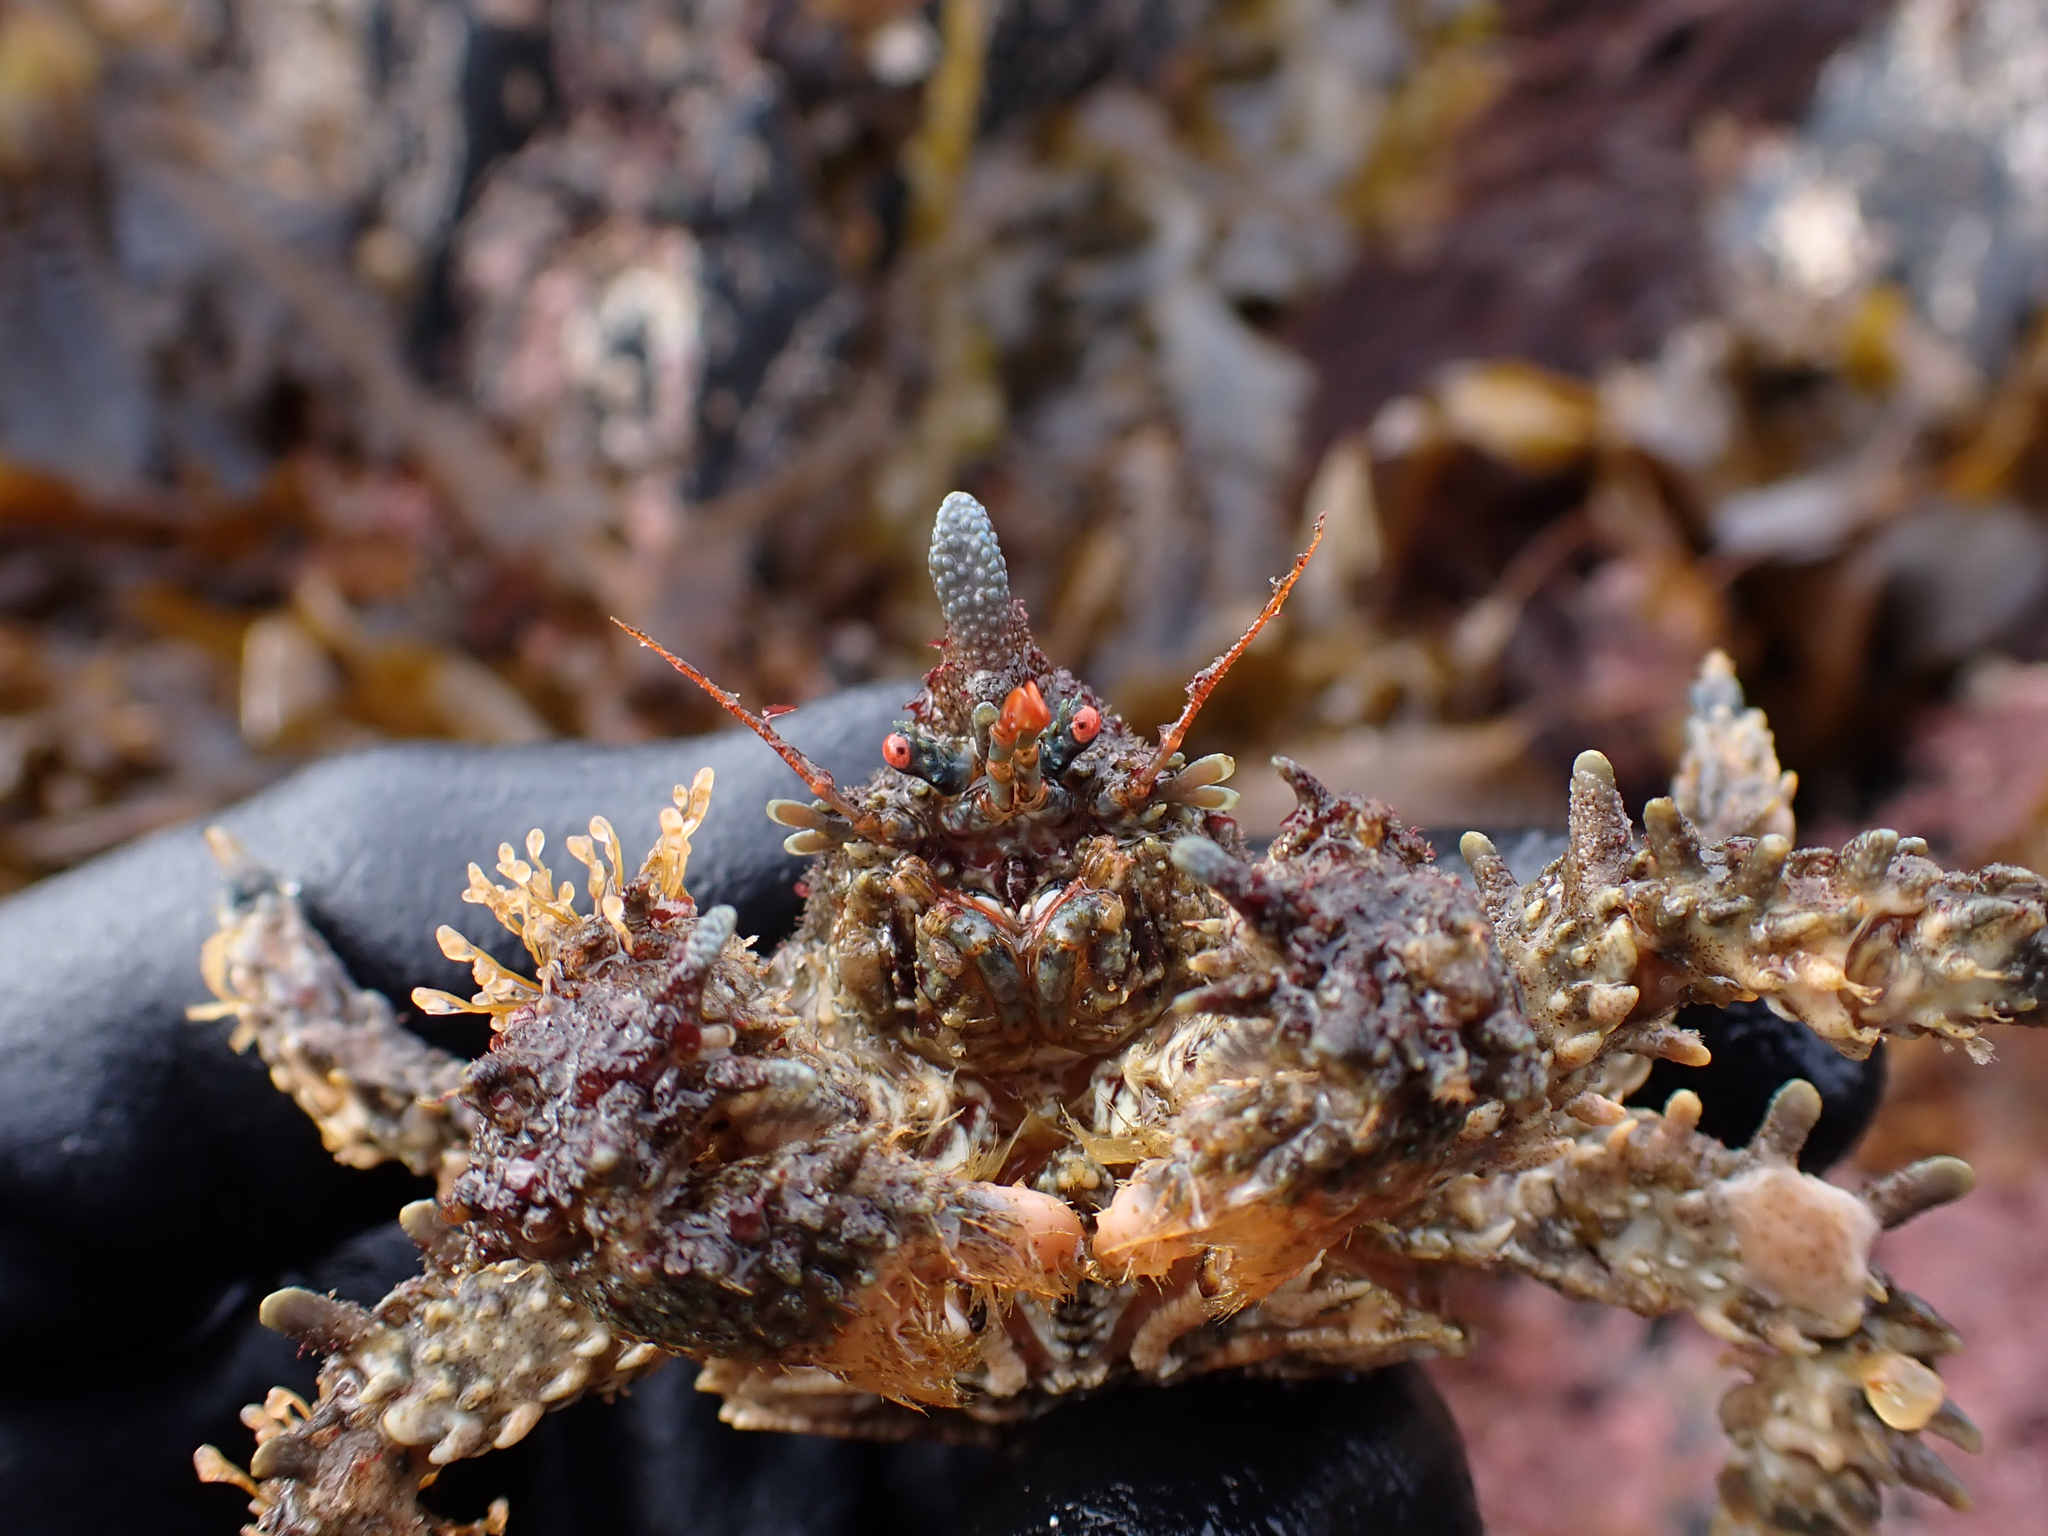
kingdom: Animalia
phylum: Arthropoda
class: Malacostraca
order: Decapoda
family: Lithodidae
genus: Phyllolithodes
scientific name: Phyllolithodes papillosus
